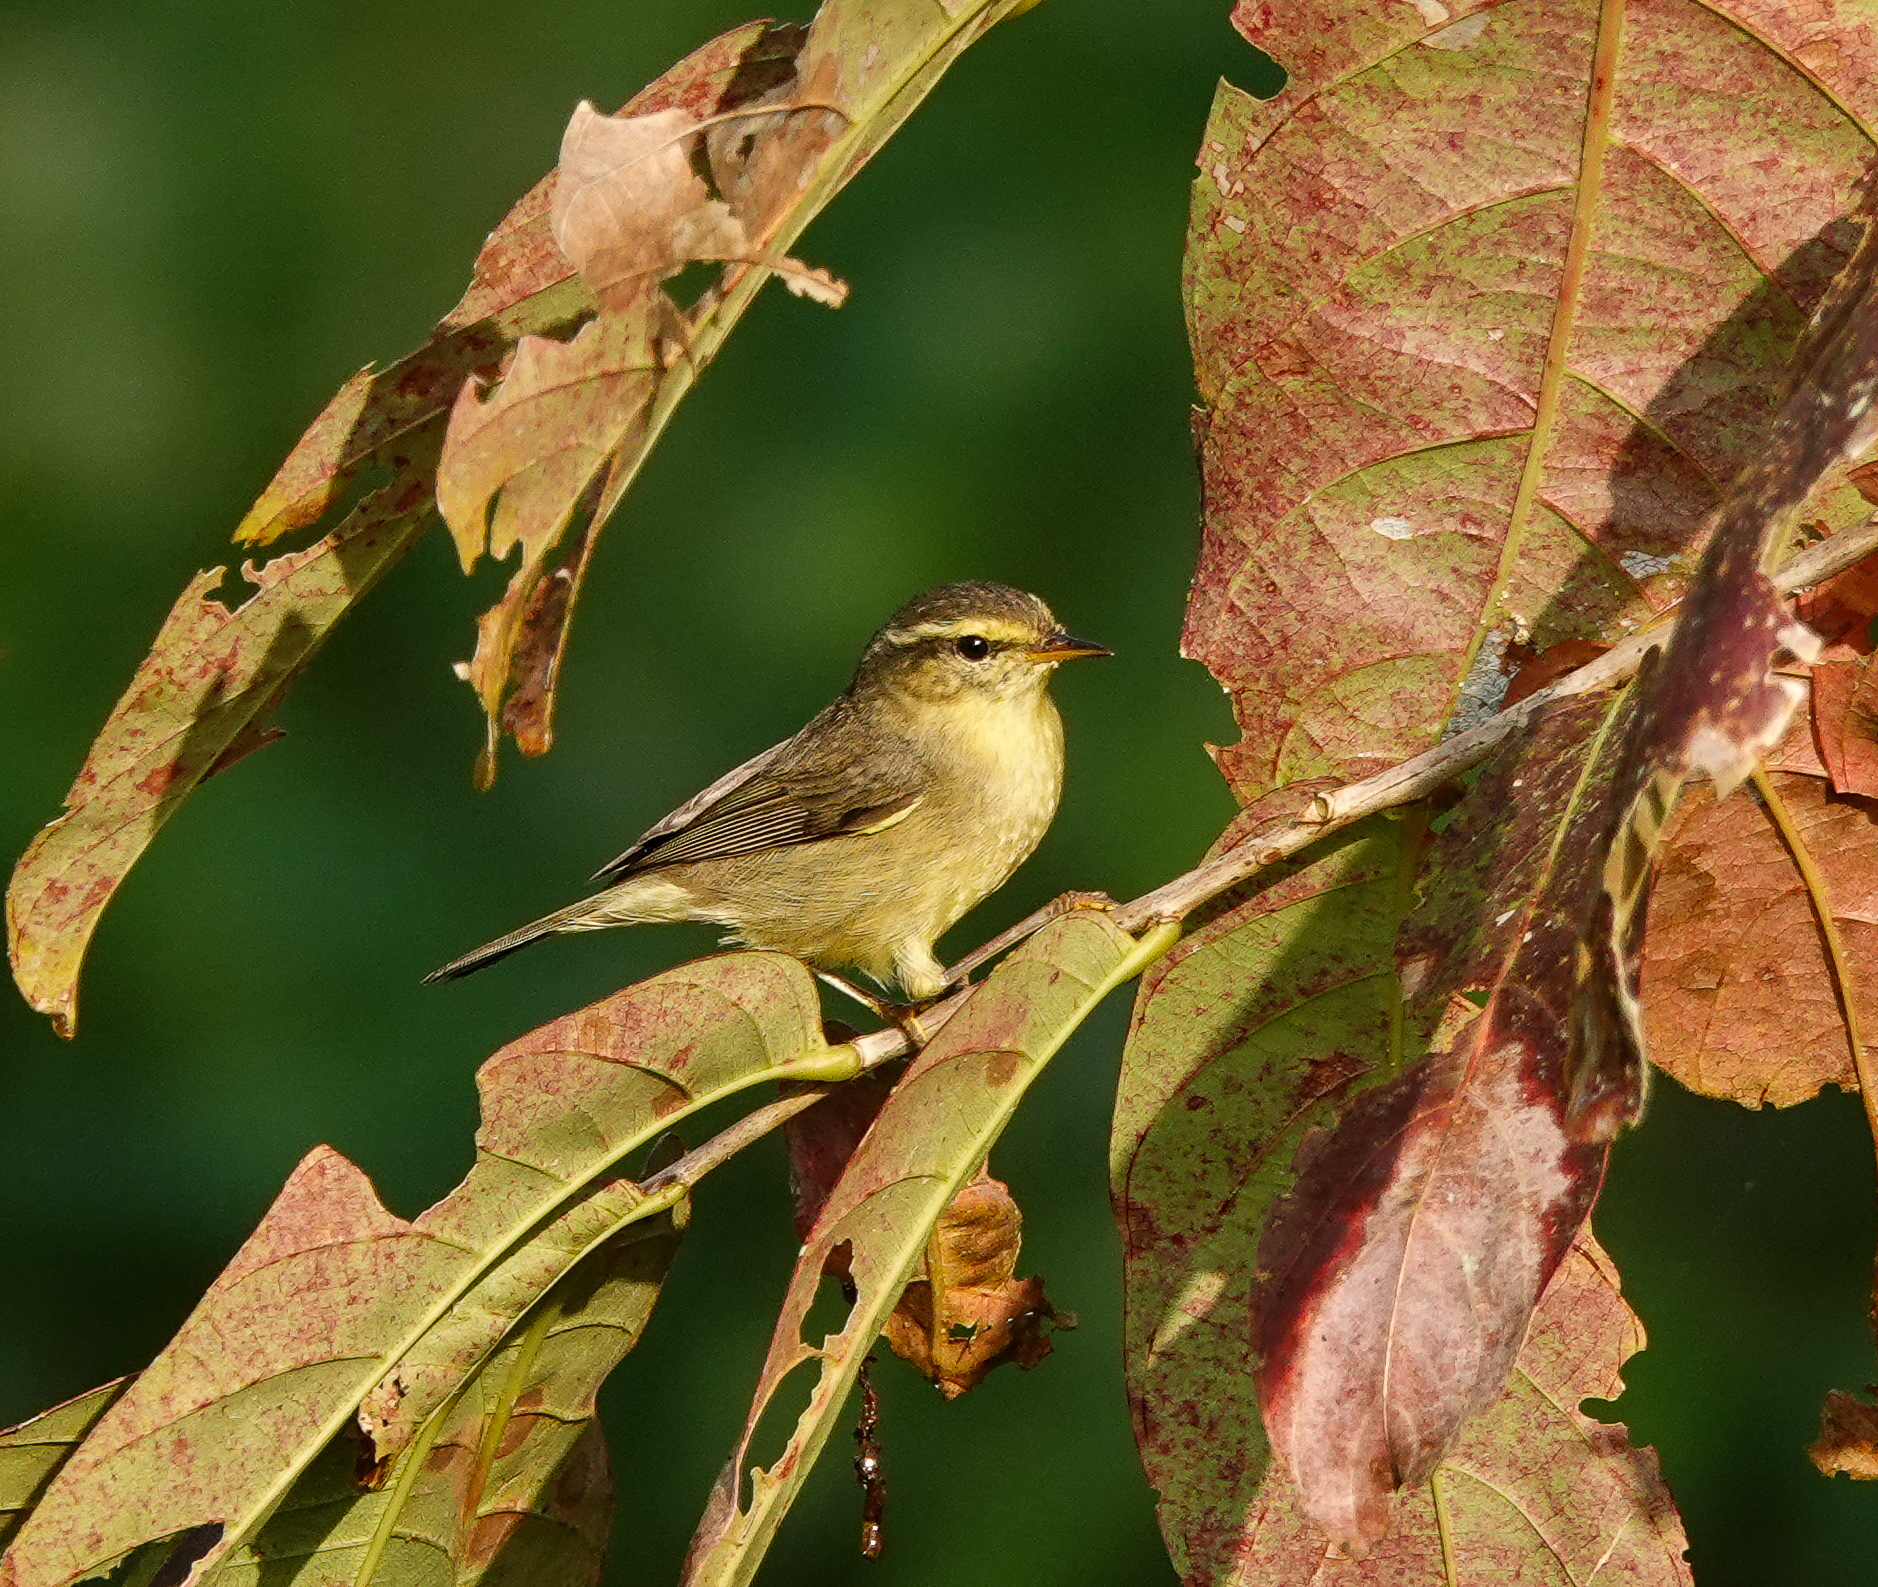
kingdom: Animalia
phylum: Chordata
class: Aves
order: Passeriformes
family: Phylloscopidae
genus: Phylloscopus
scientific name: Phylloscopus affinis
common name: Tickell's leaf warbler
